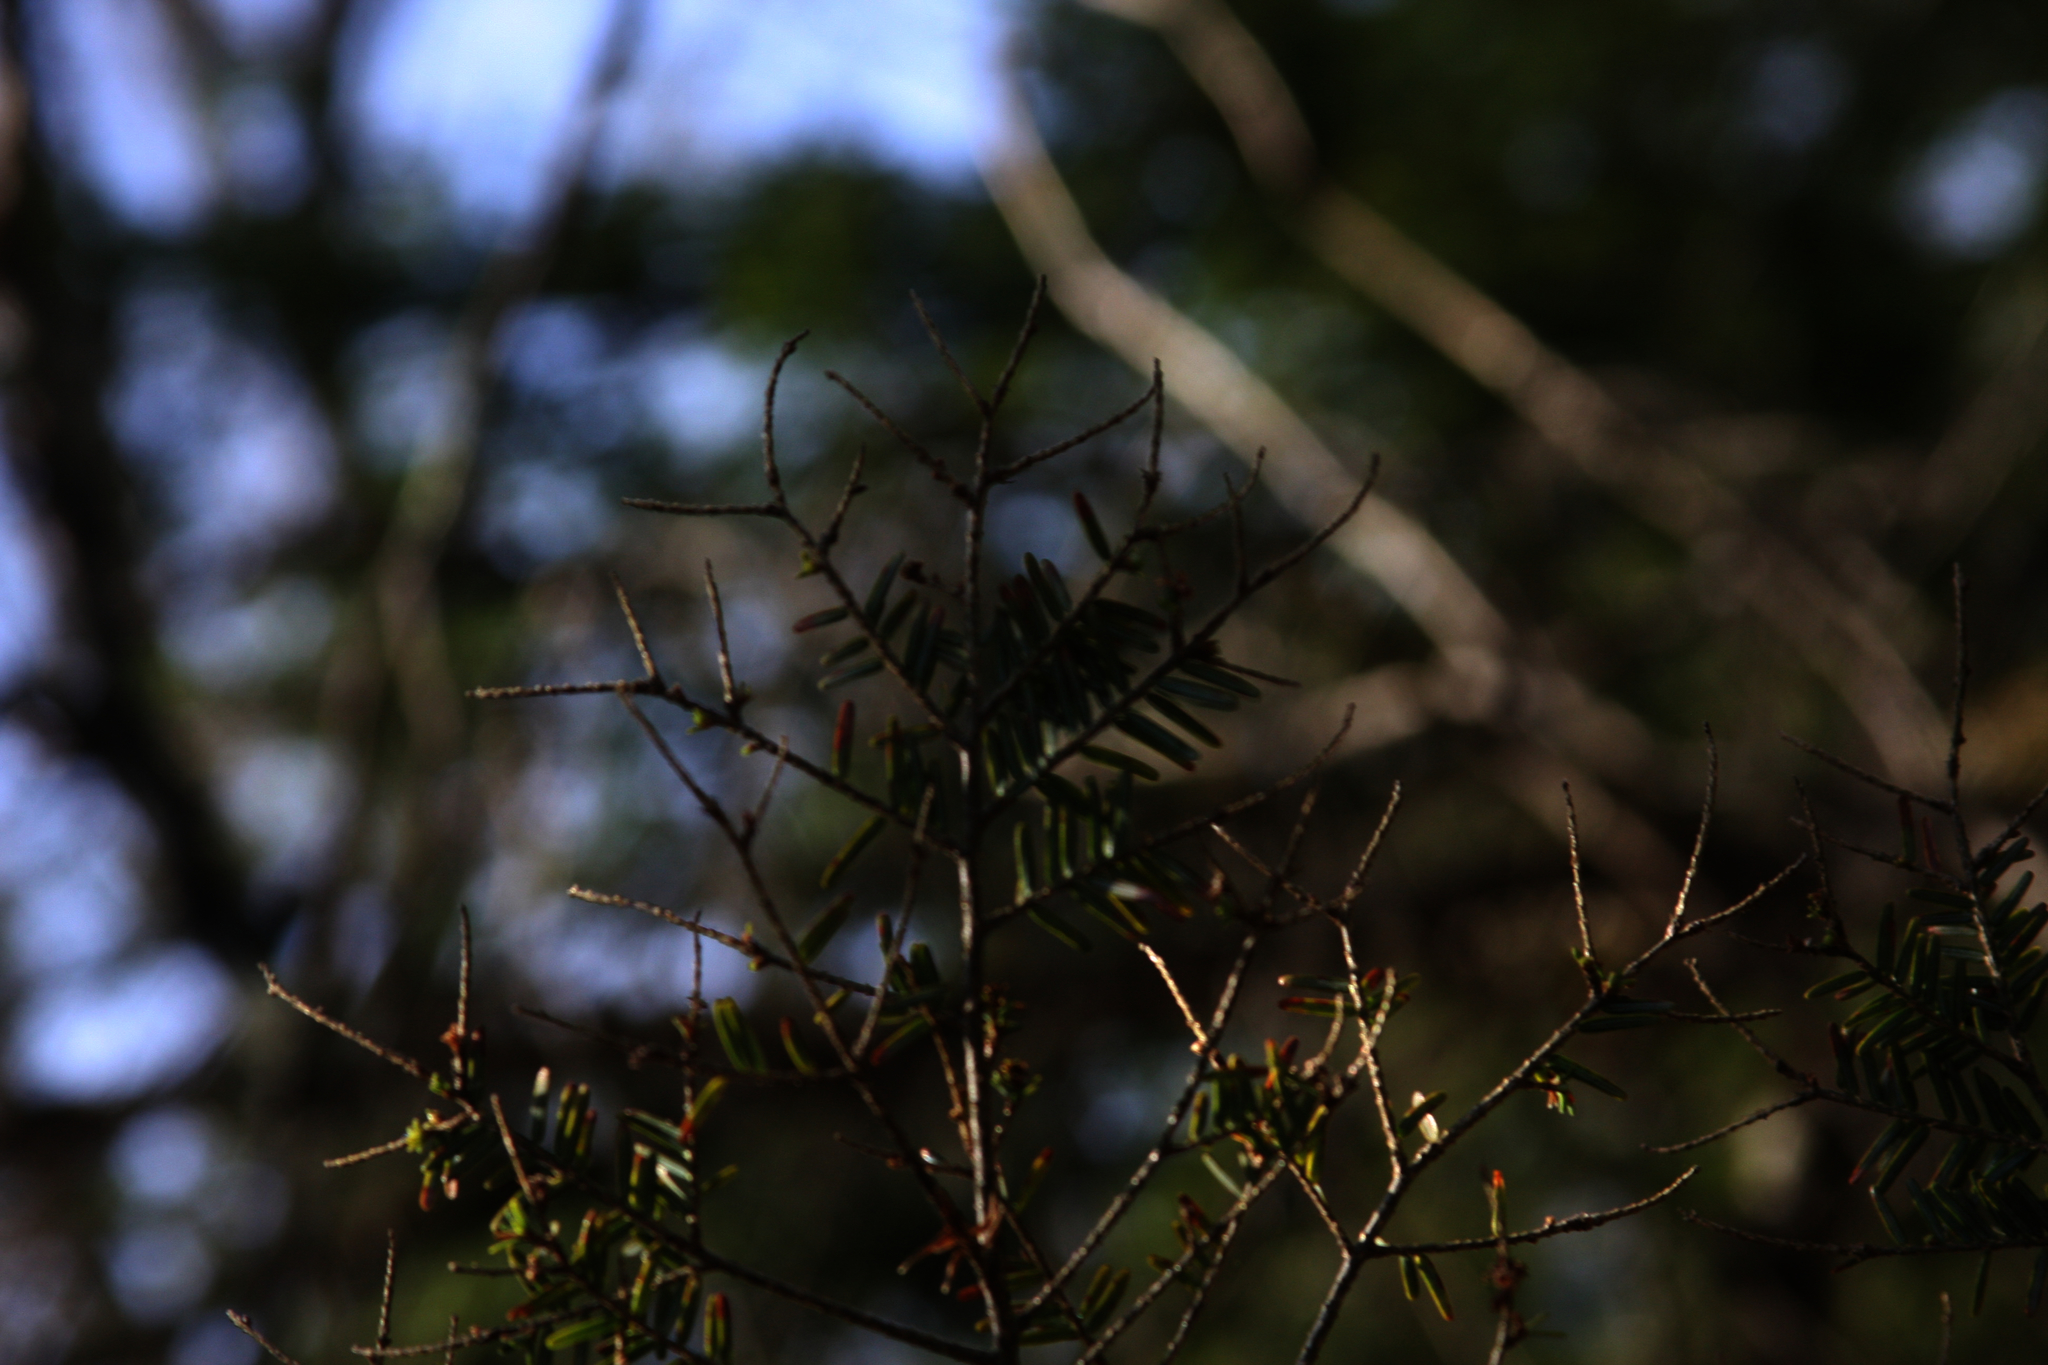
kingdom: Plantae
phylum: Tracheophyta
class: Pinopsida
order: Pinales
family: Pinaceae
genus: Tsuga
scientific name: Tsuga canadensis
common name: Eastern hemlock
